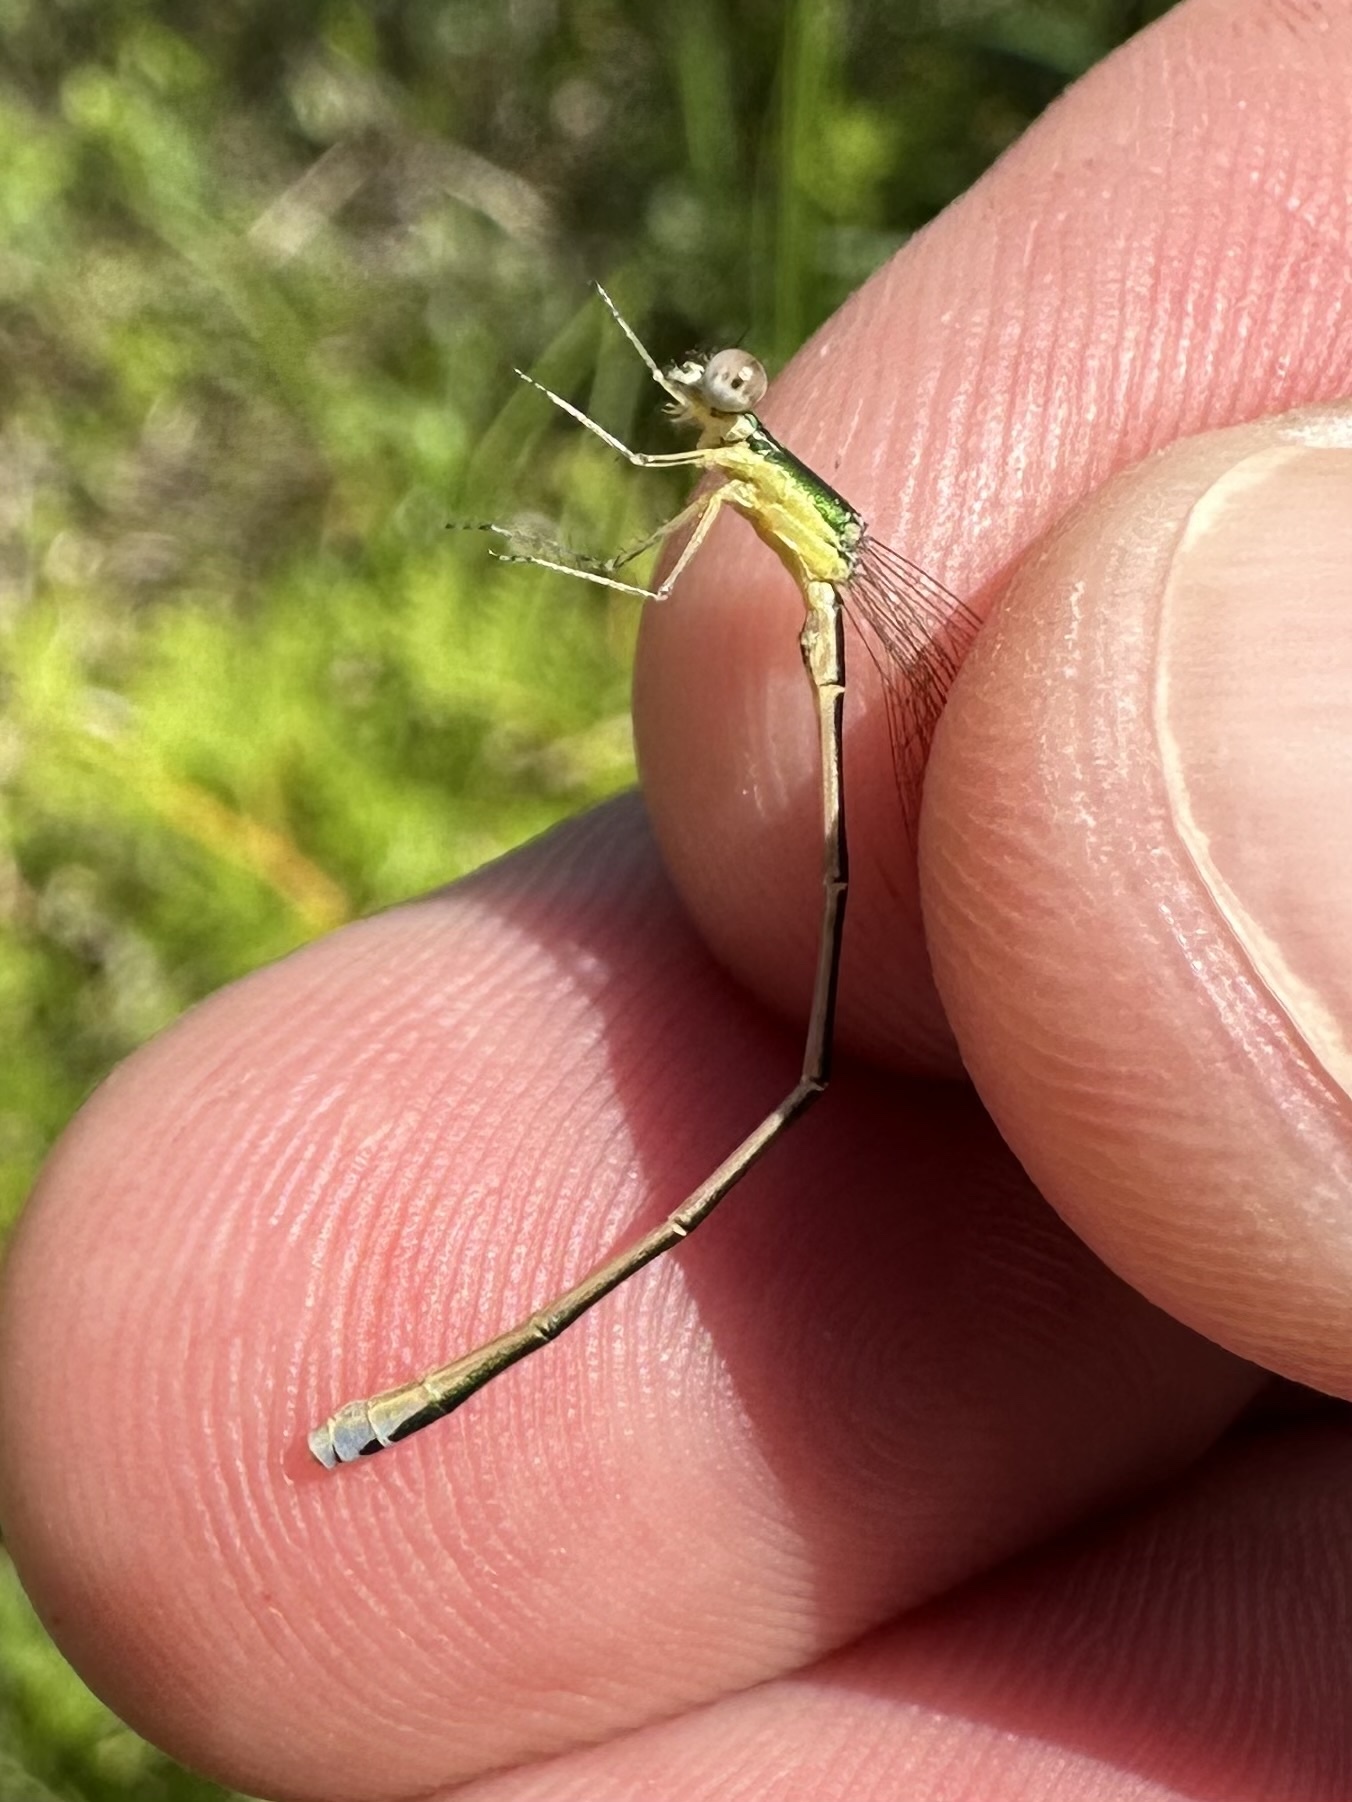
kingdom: Animalia
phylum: Arthropoda
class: Insecta
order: Odonata
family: Coenagrionidae
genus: Nehalennia
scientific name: Nehalennia irene
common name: Sedge sprite
